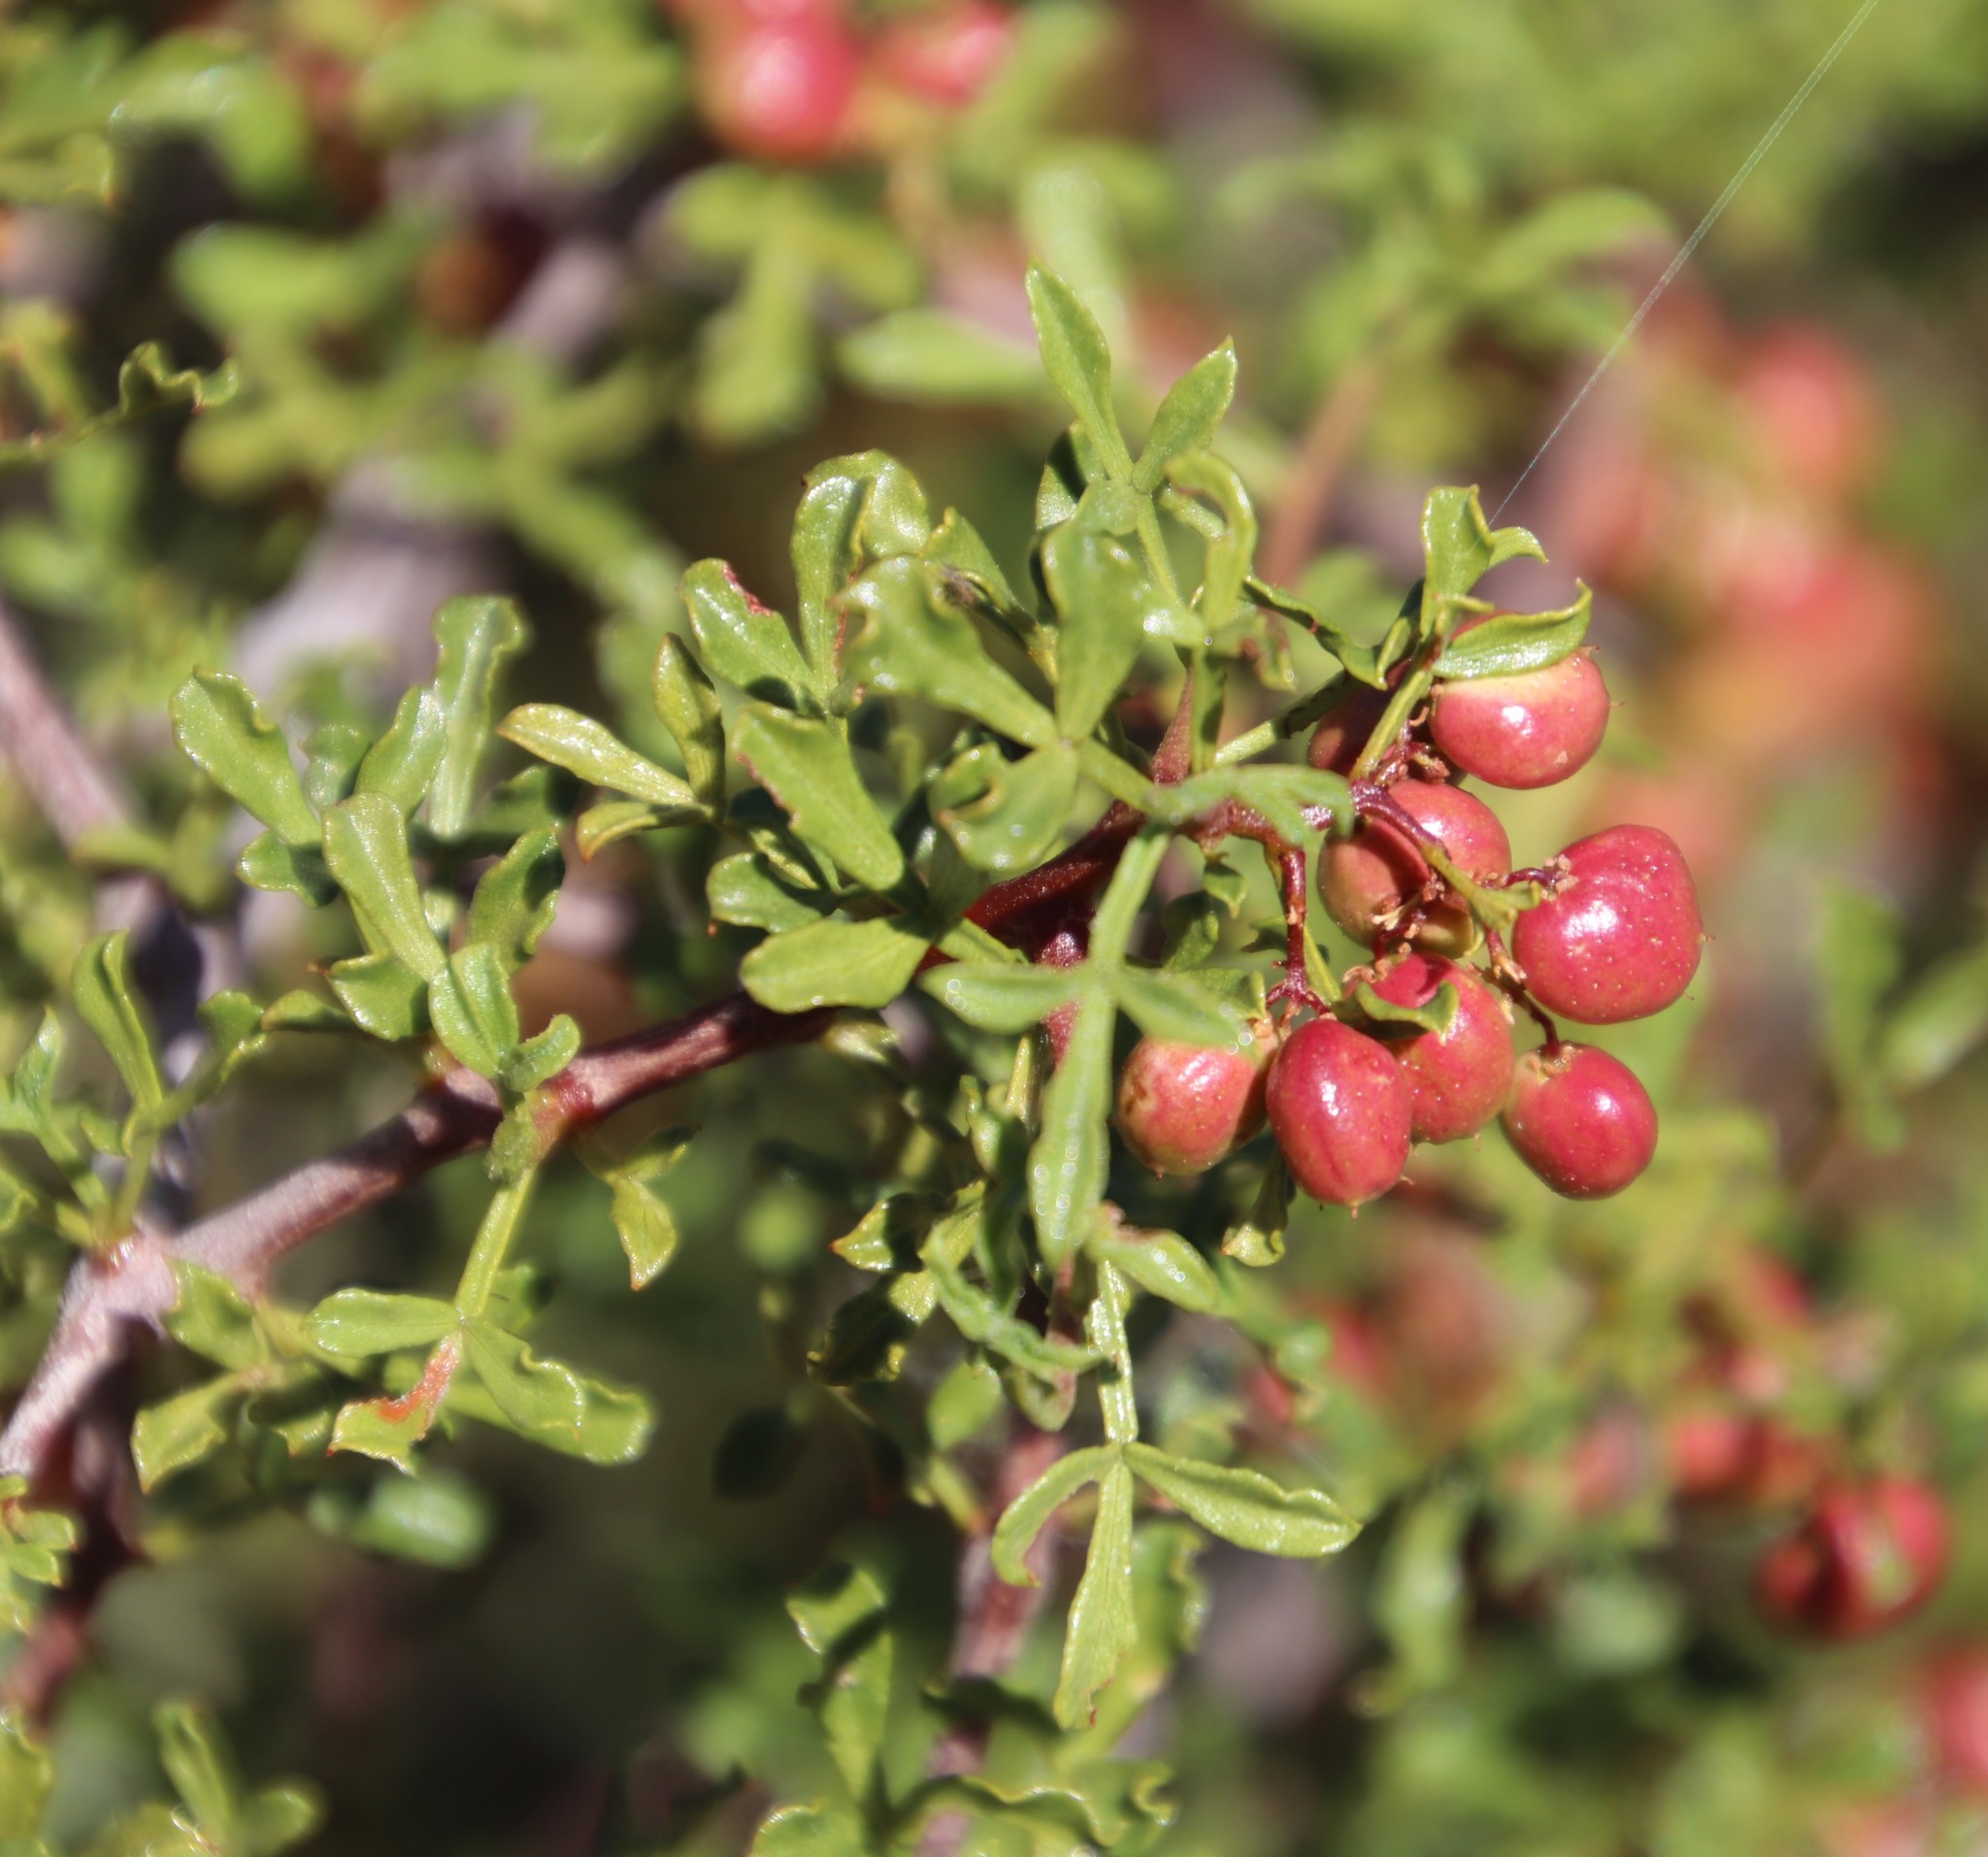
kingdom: Plantae
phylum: Tracheophyta
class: Magnoliopsida
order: Sapindales
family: Anacardiaceae
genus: Searsia
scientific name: Searsia undulata
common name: Namaqua kunibush
